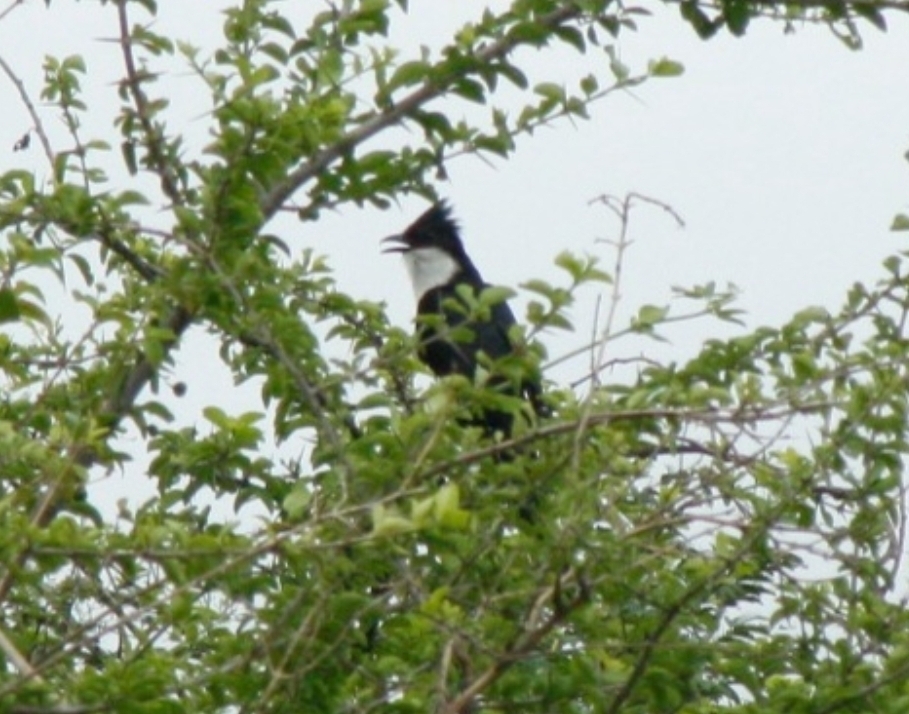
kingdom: Animalia
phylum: Chordata
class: Aves
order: Cuculiformes
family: Cuculidae
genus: Clamator
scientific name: Clamator jacobinus
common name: Jacobin cuckoo
